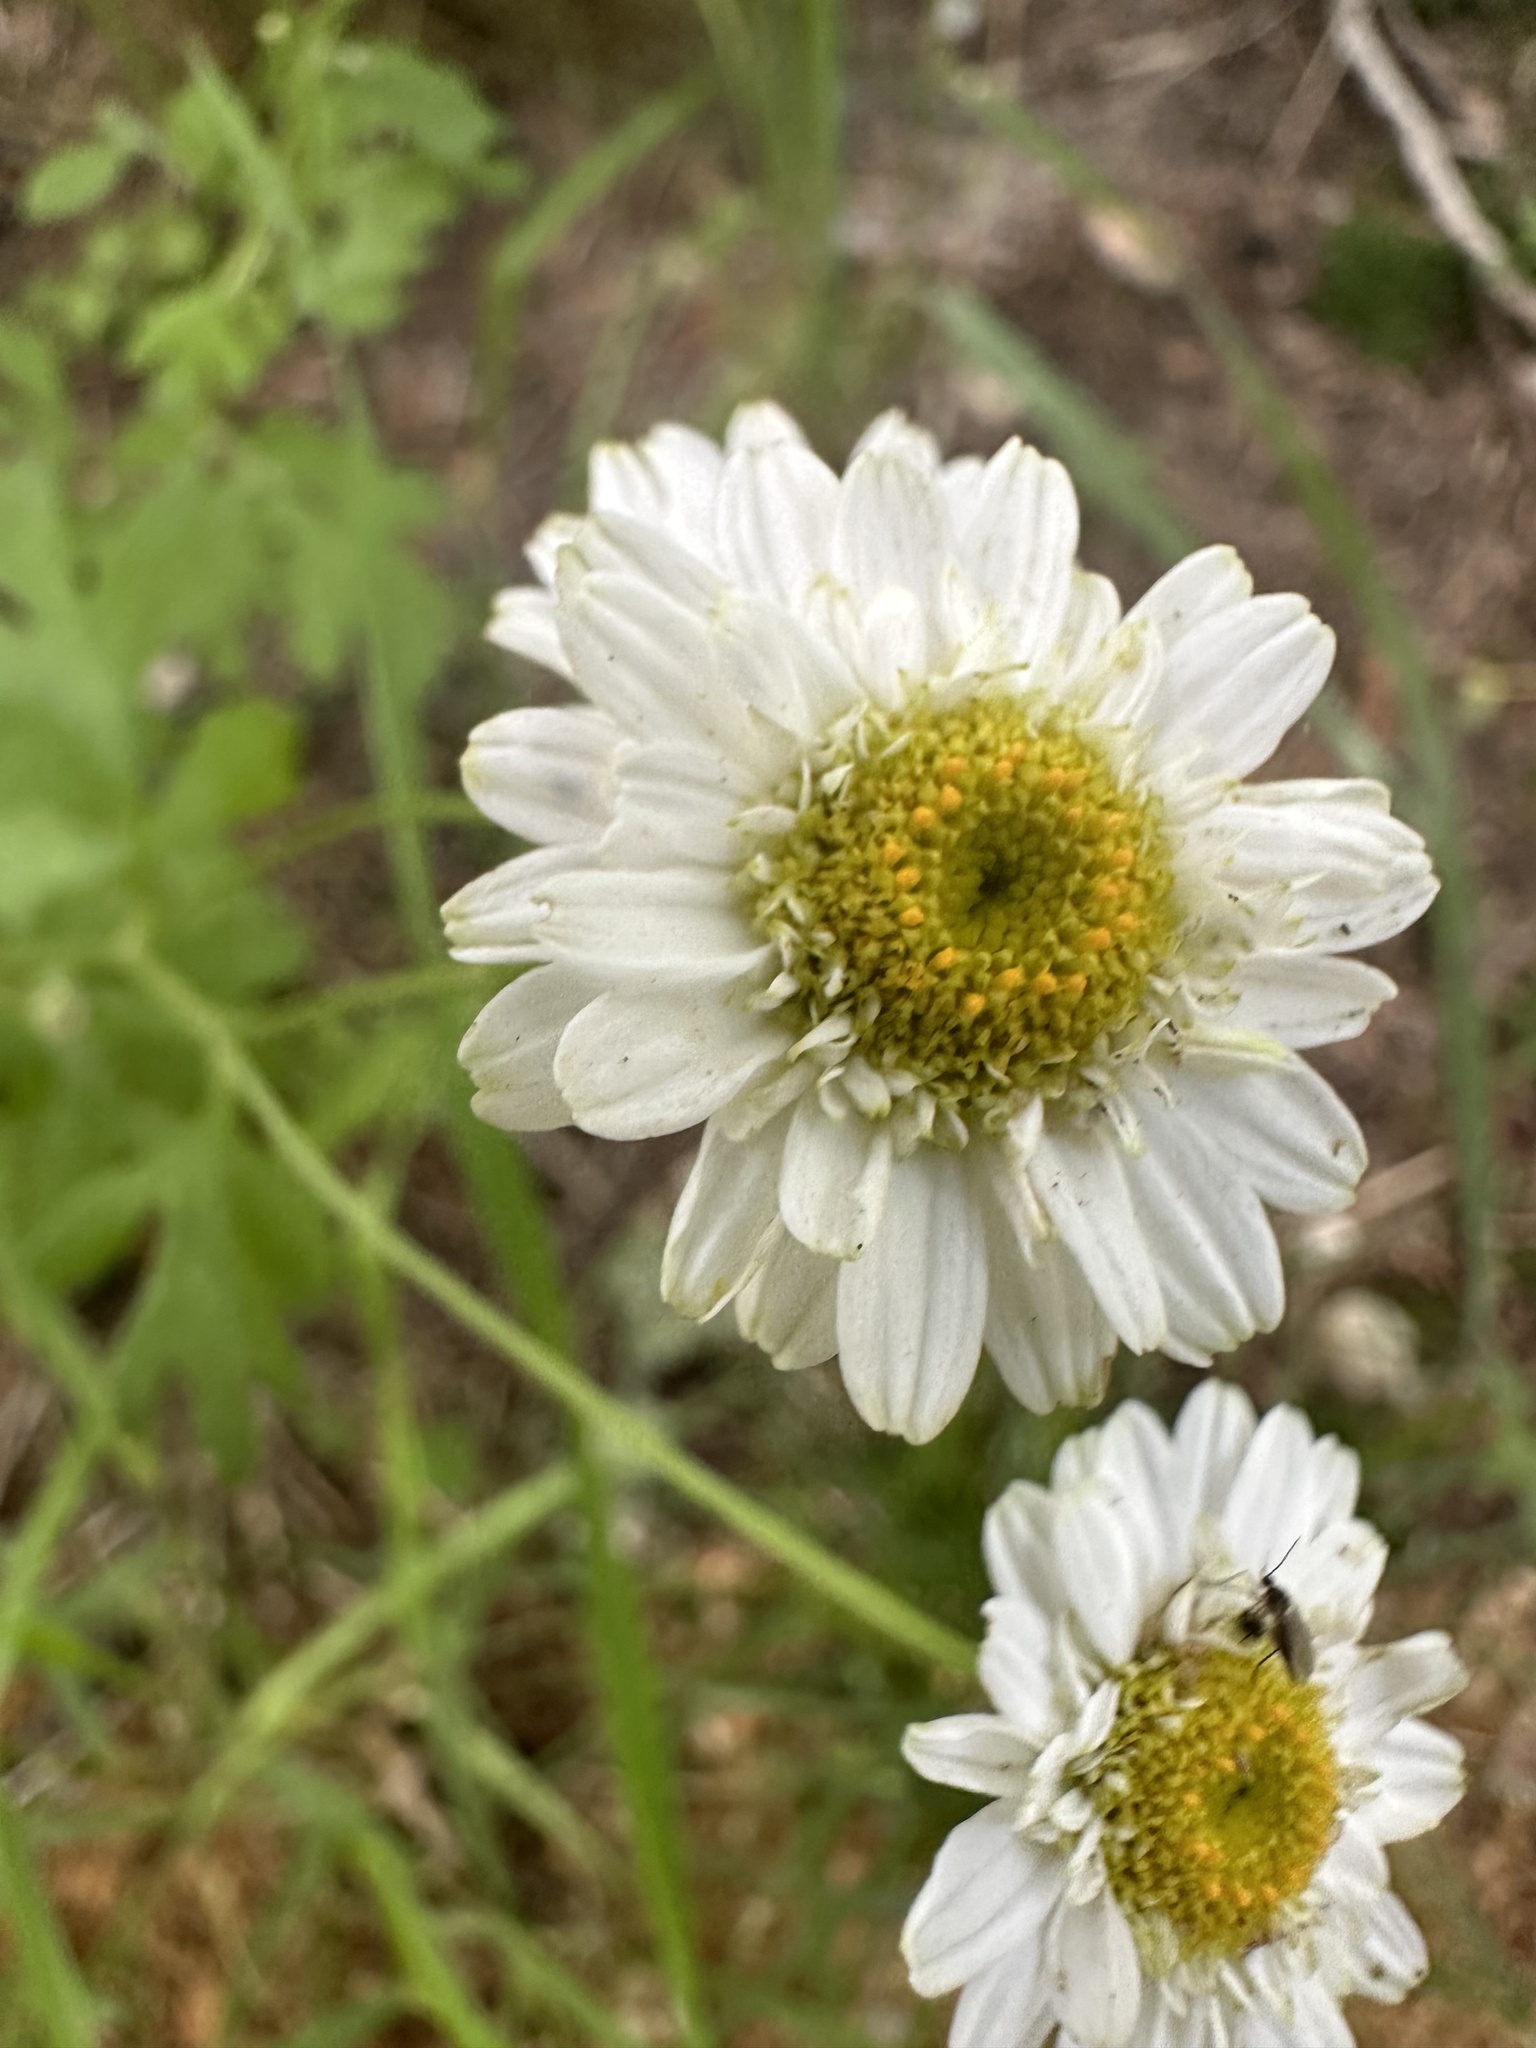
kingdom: Plantae
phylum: Tracheophyta
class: Magnoliopsida
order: Asterales
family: Asteraceae
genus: Tanacetum
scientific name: Tanacetum parthenium
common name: Feverfew
